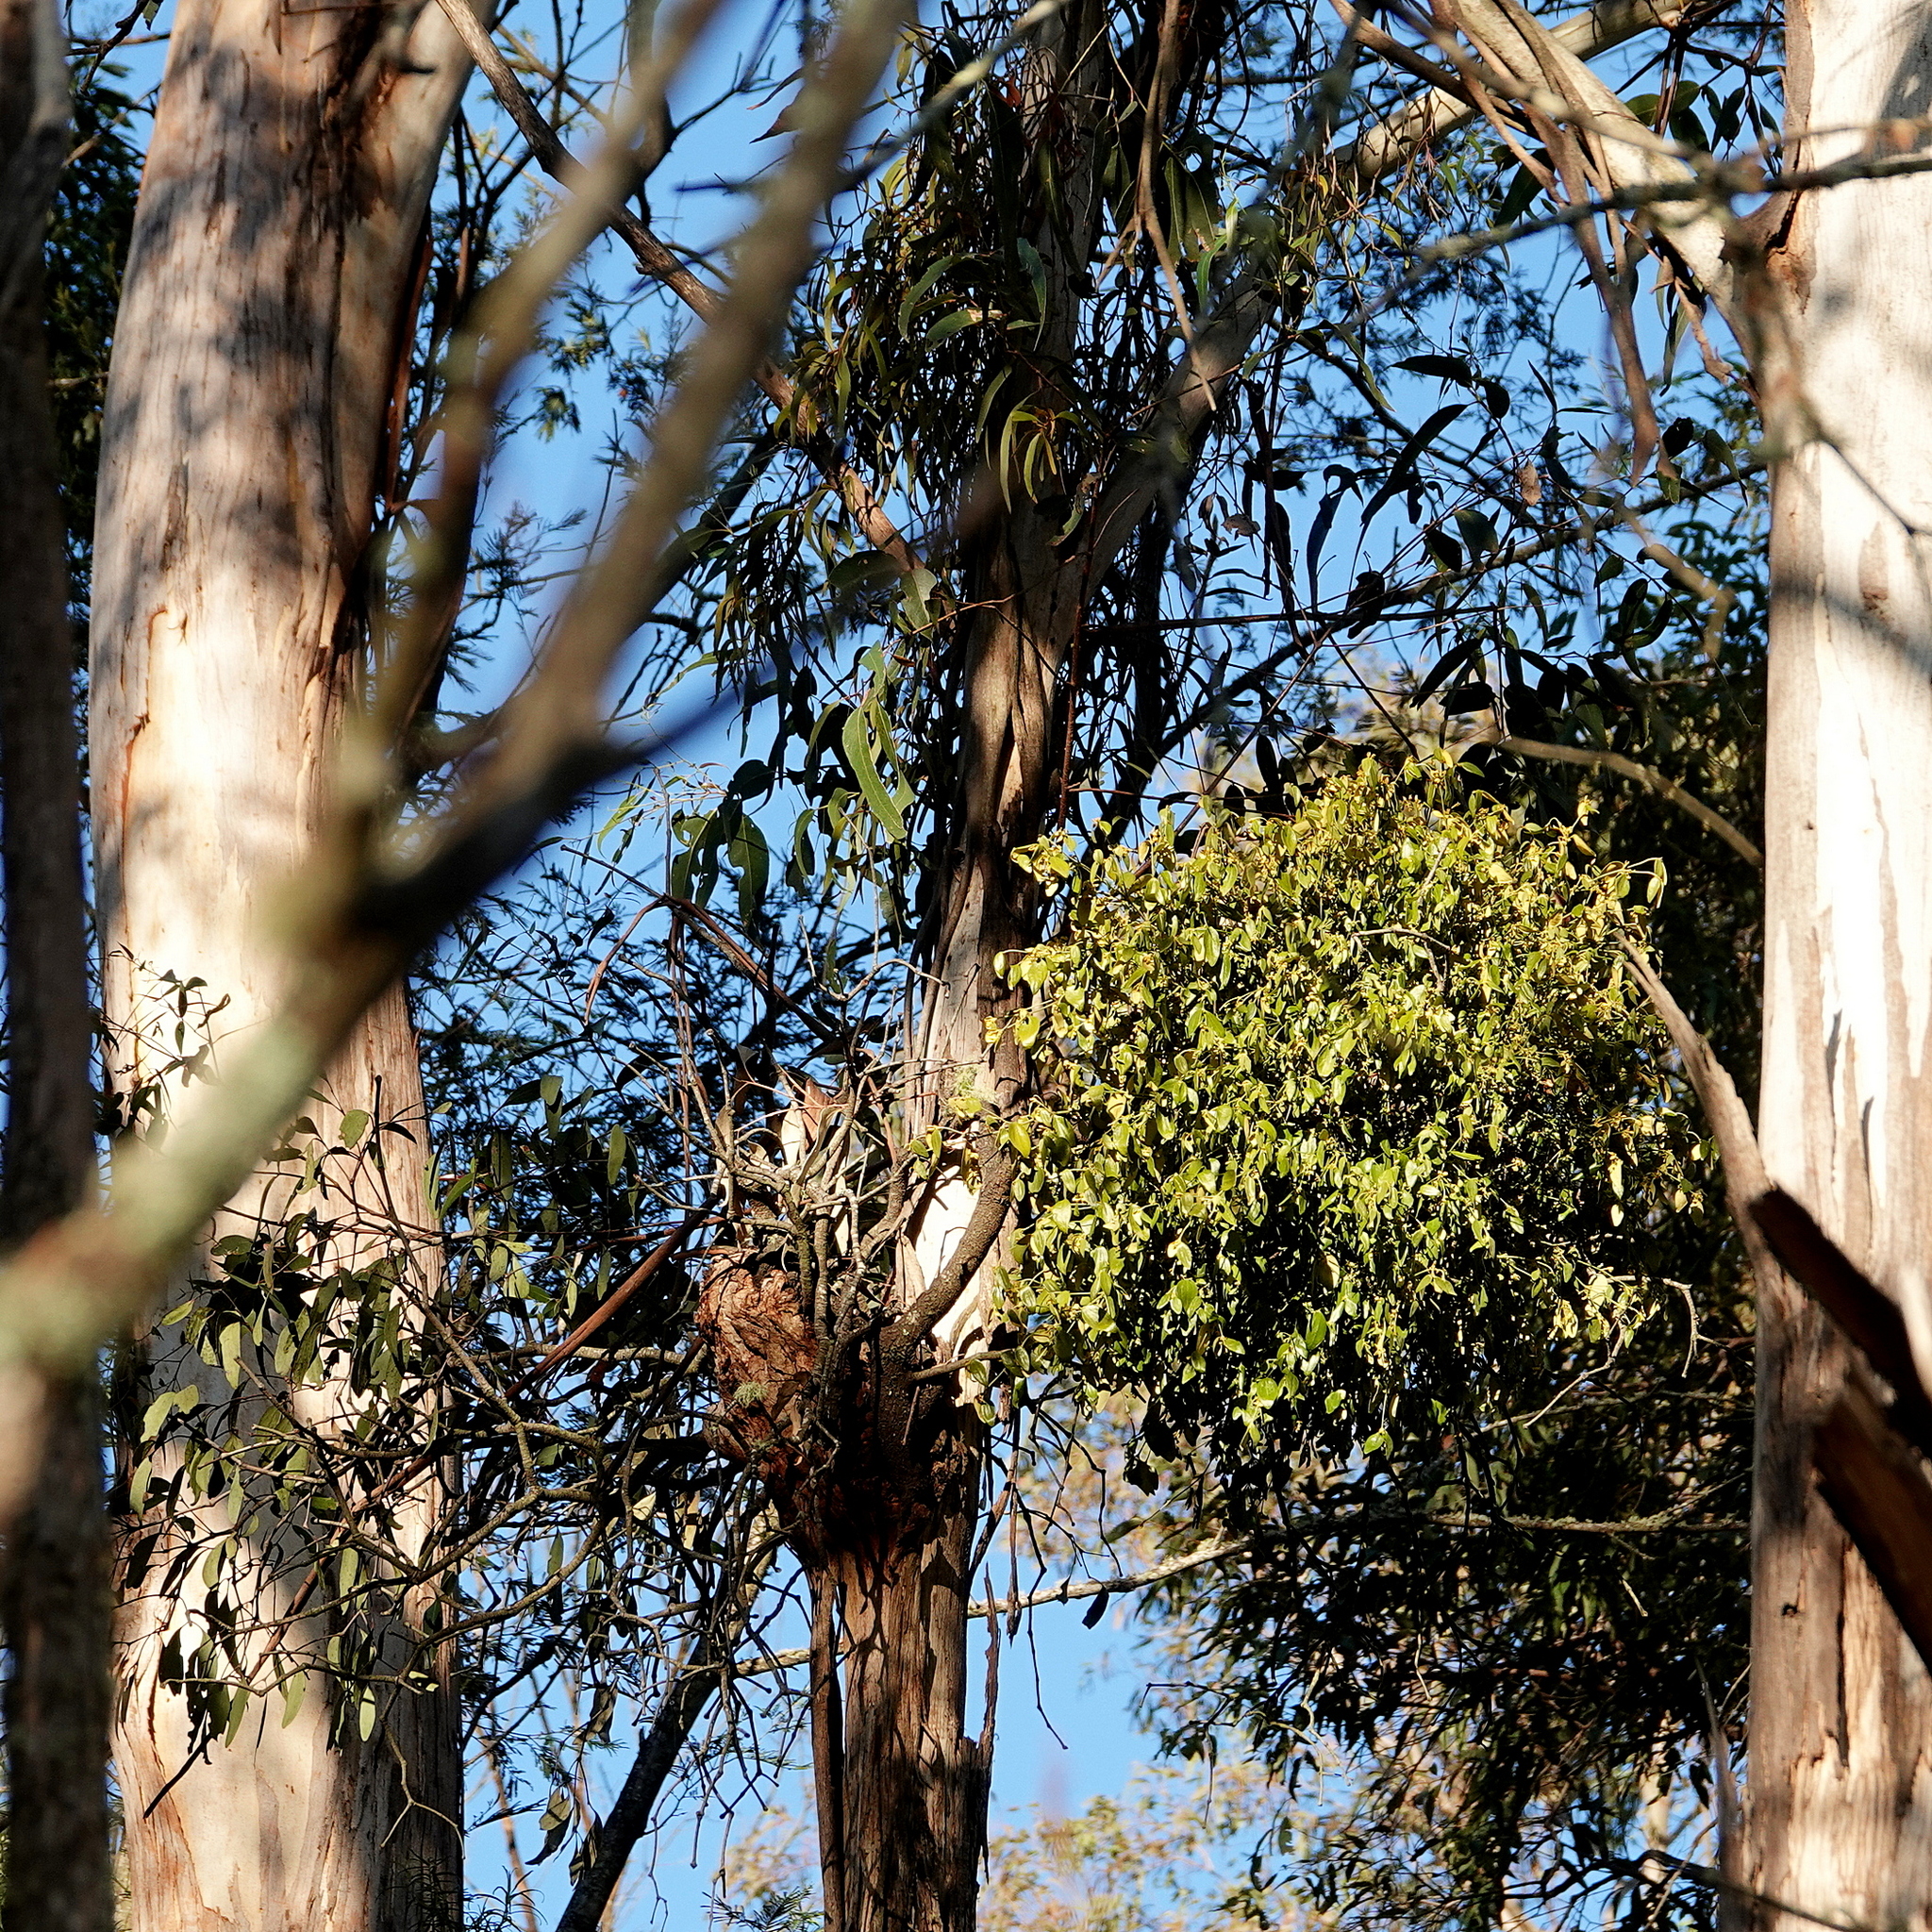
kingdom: Plantae
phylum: Tracheophyta
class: Magnoliopsida
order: Santalales
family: Viscaceae
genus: Notothixos
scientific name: Notothixos subaureus
